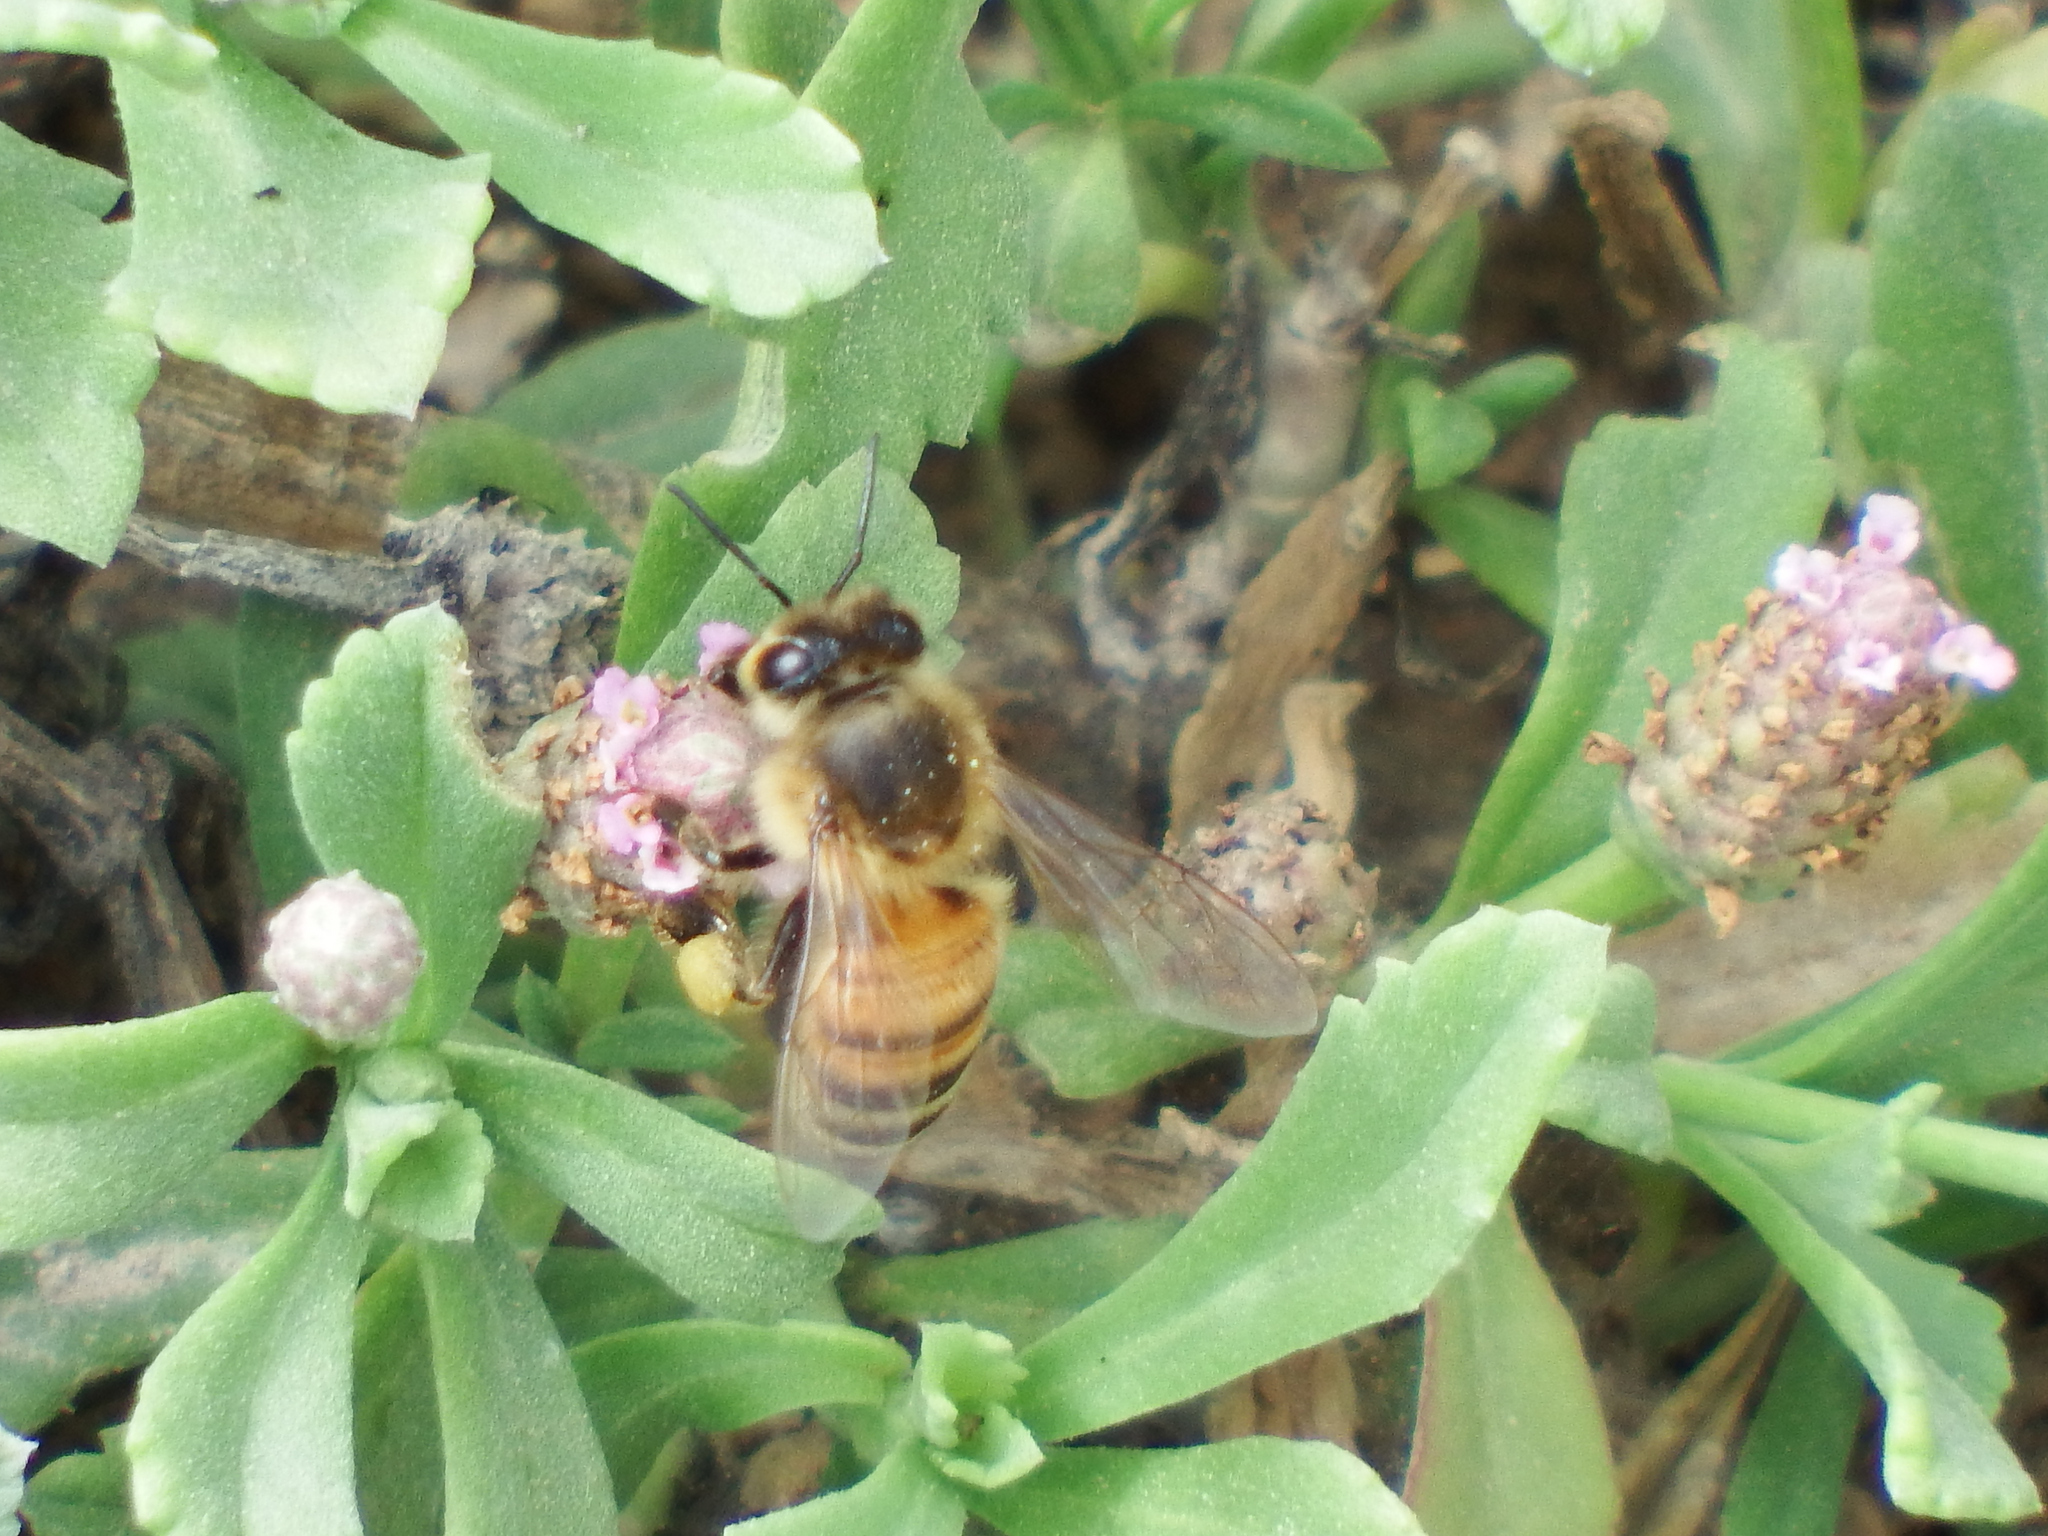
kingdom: Animalia
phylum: Arthropoda
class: Insecta
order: Hymenoptera
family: Apidae
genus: Apis
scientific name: Apis mellifera
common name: Honey bee
